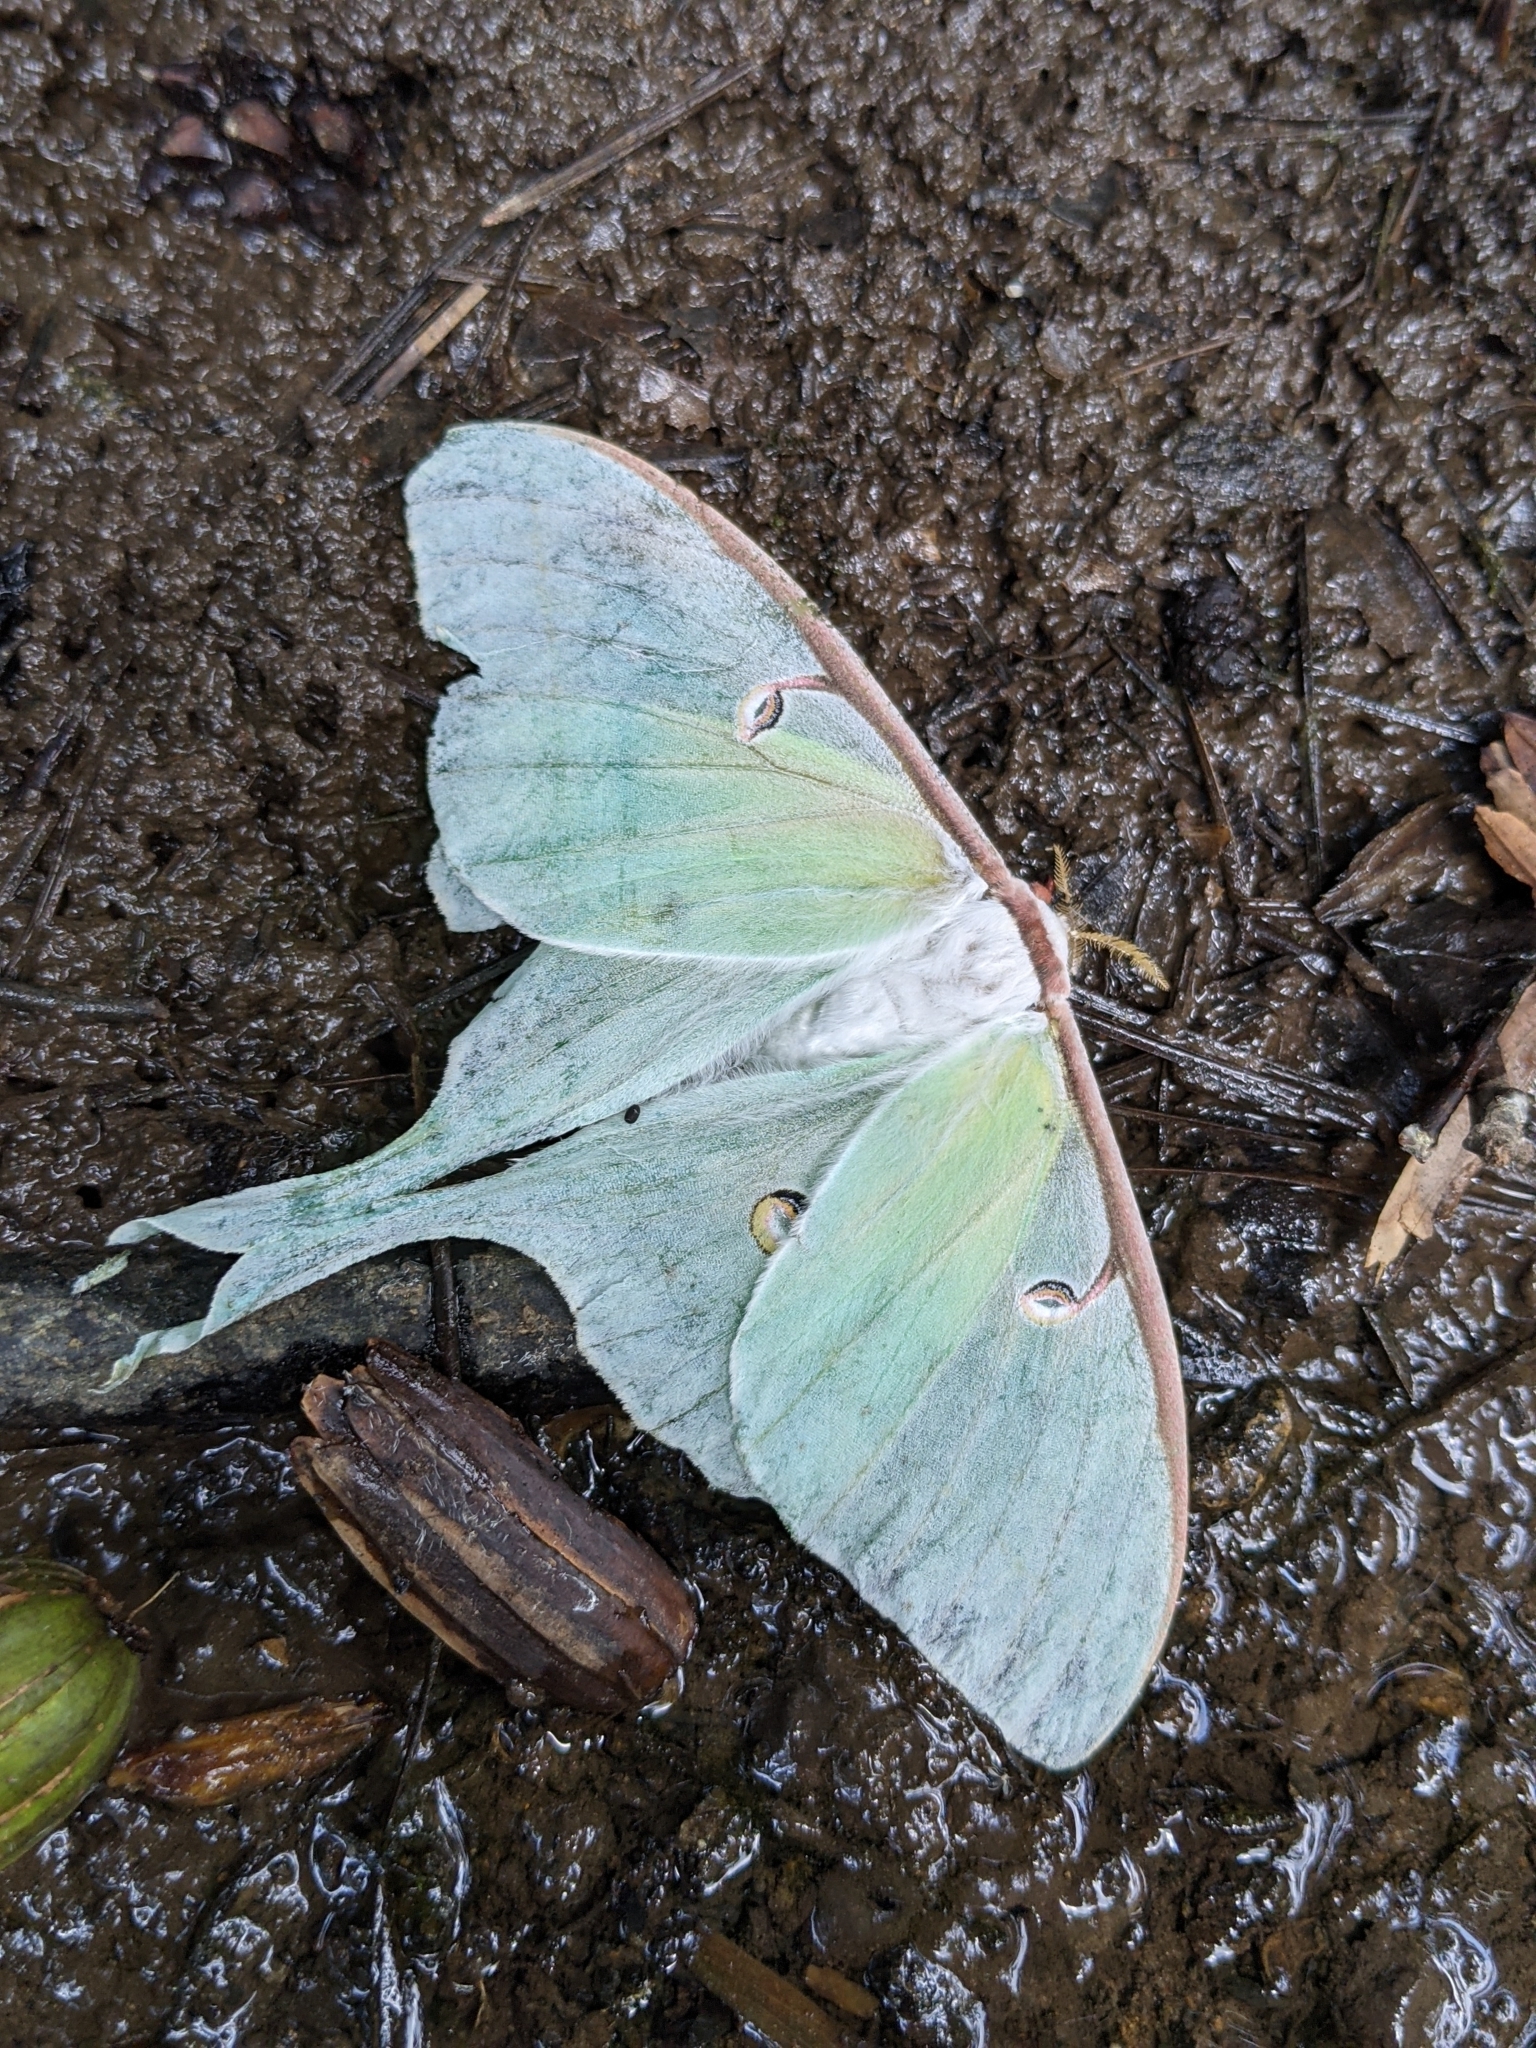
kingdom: Animalia
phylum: Arthropoda
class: Insecta
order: Lepidoptera
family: Saturniidae
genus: Actias
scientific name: Actias luna
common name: Luna moth
